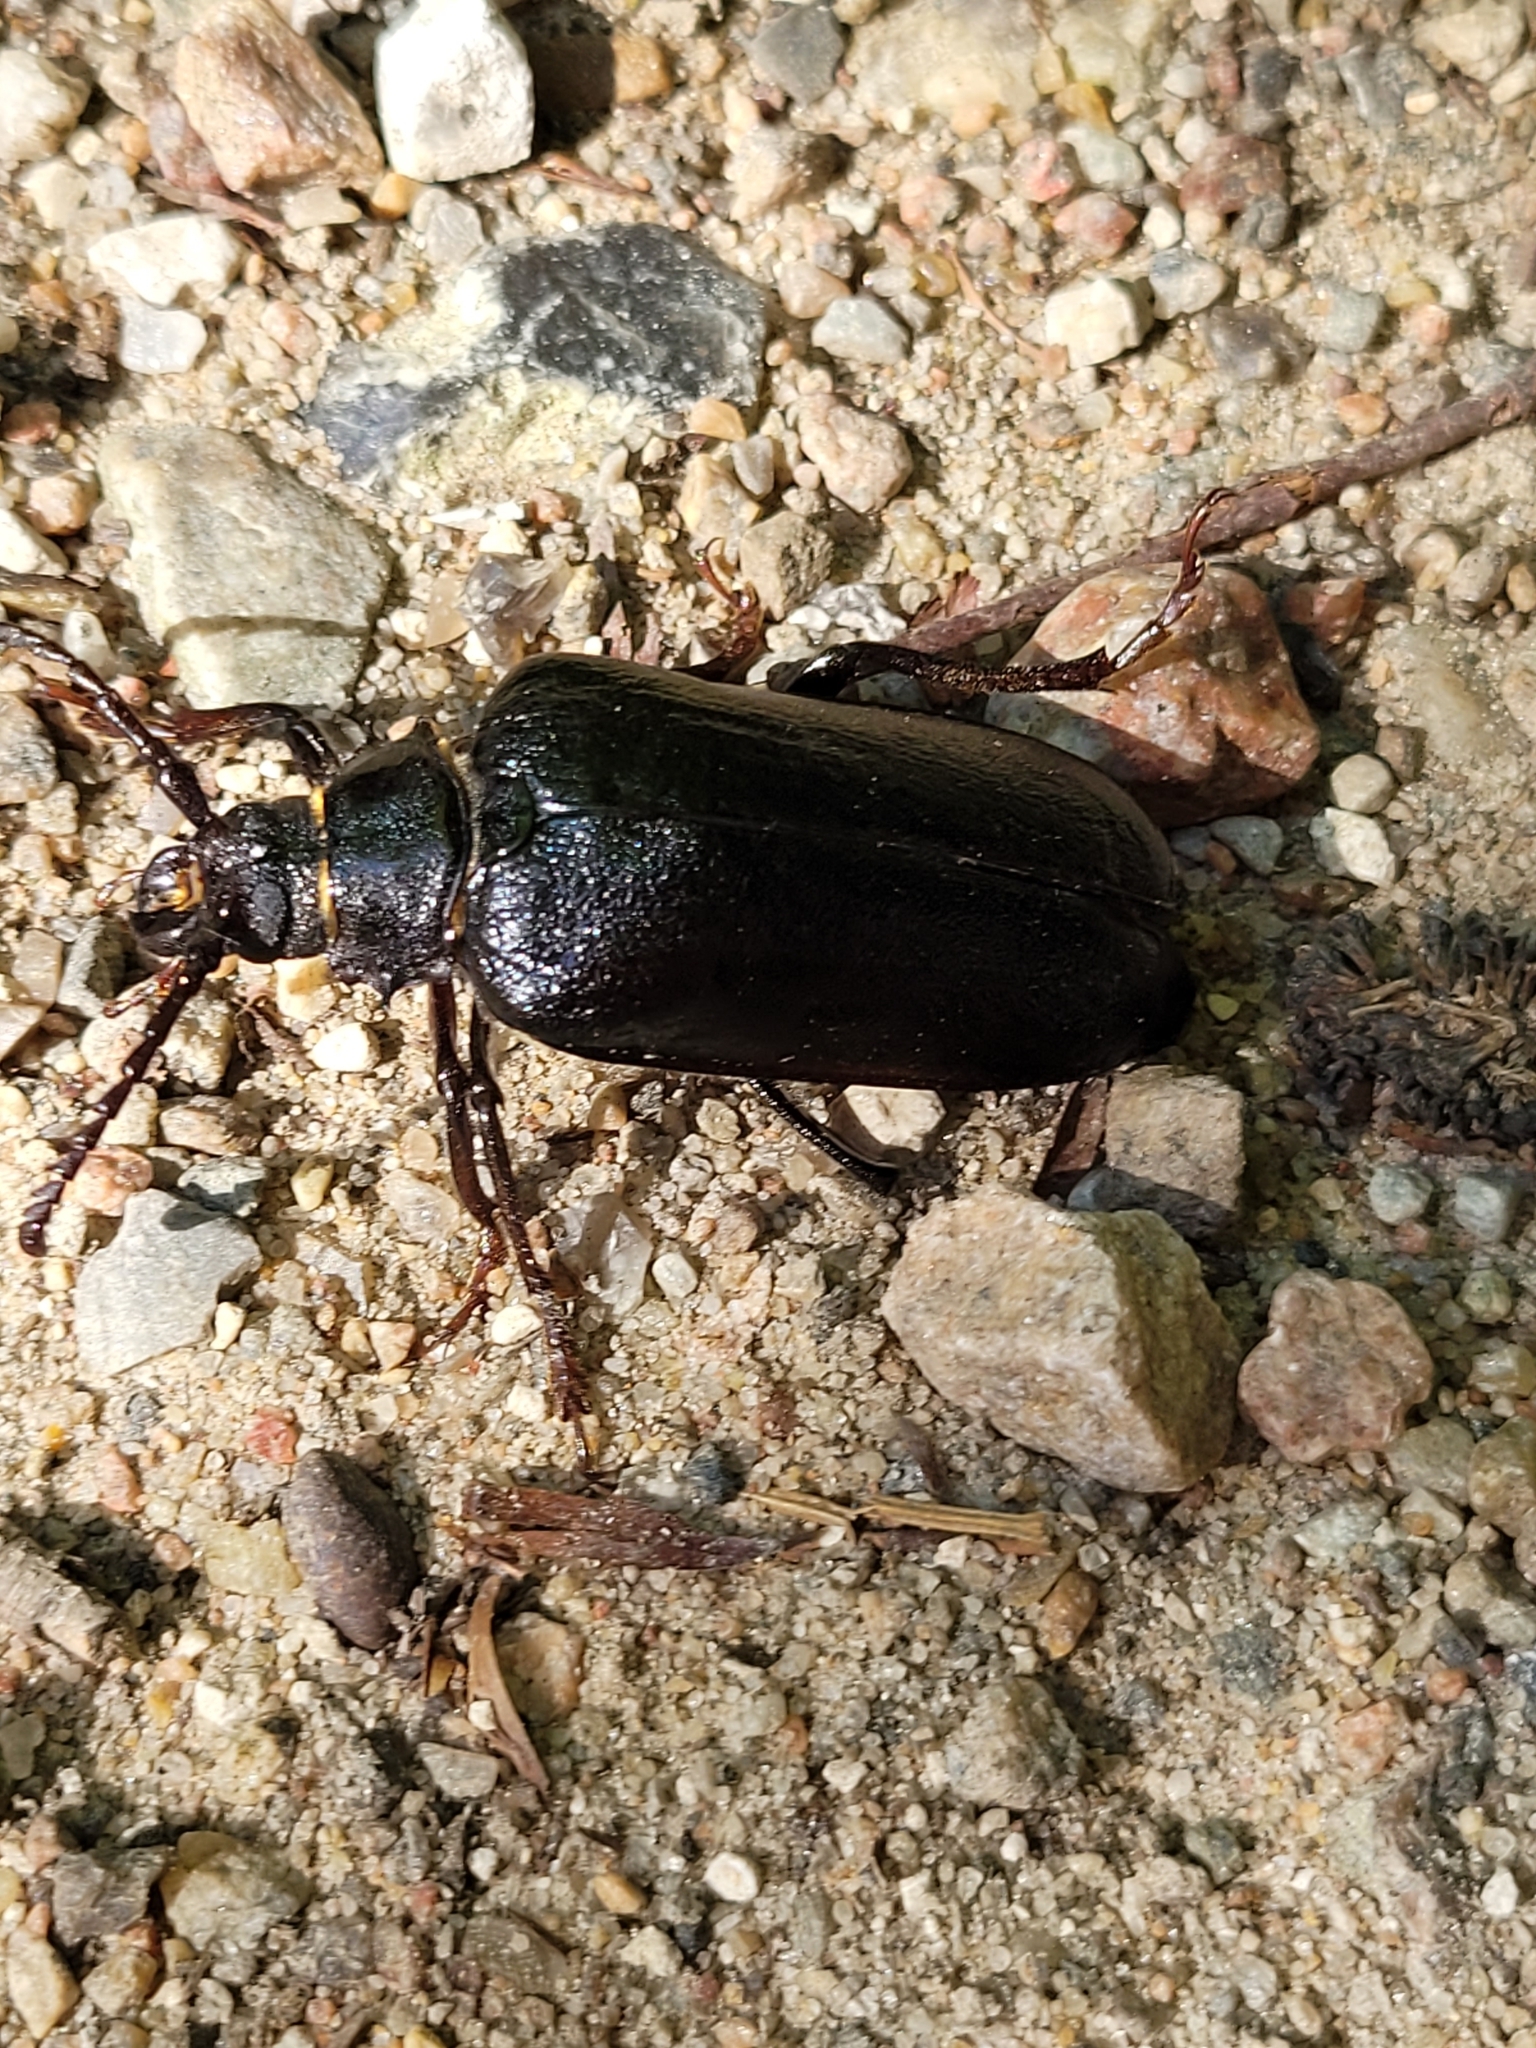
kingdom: Animalia
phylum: Arthropoda
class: Insecta
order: Coleoptera
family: Cerambycidae
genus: Prionus
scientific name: Prionus coriarius
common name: Tanner beetle
